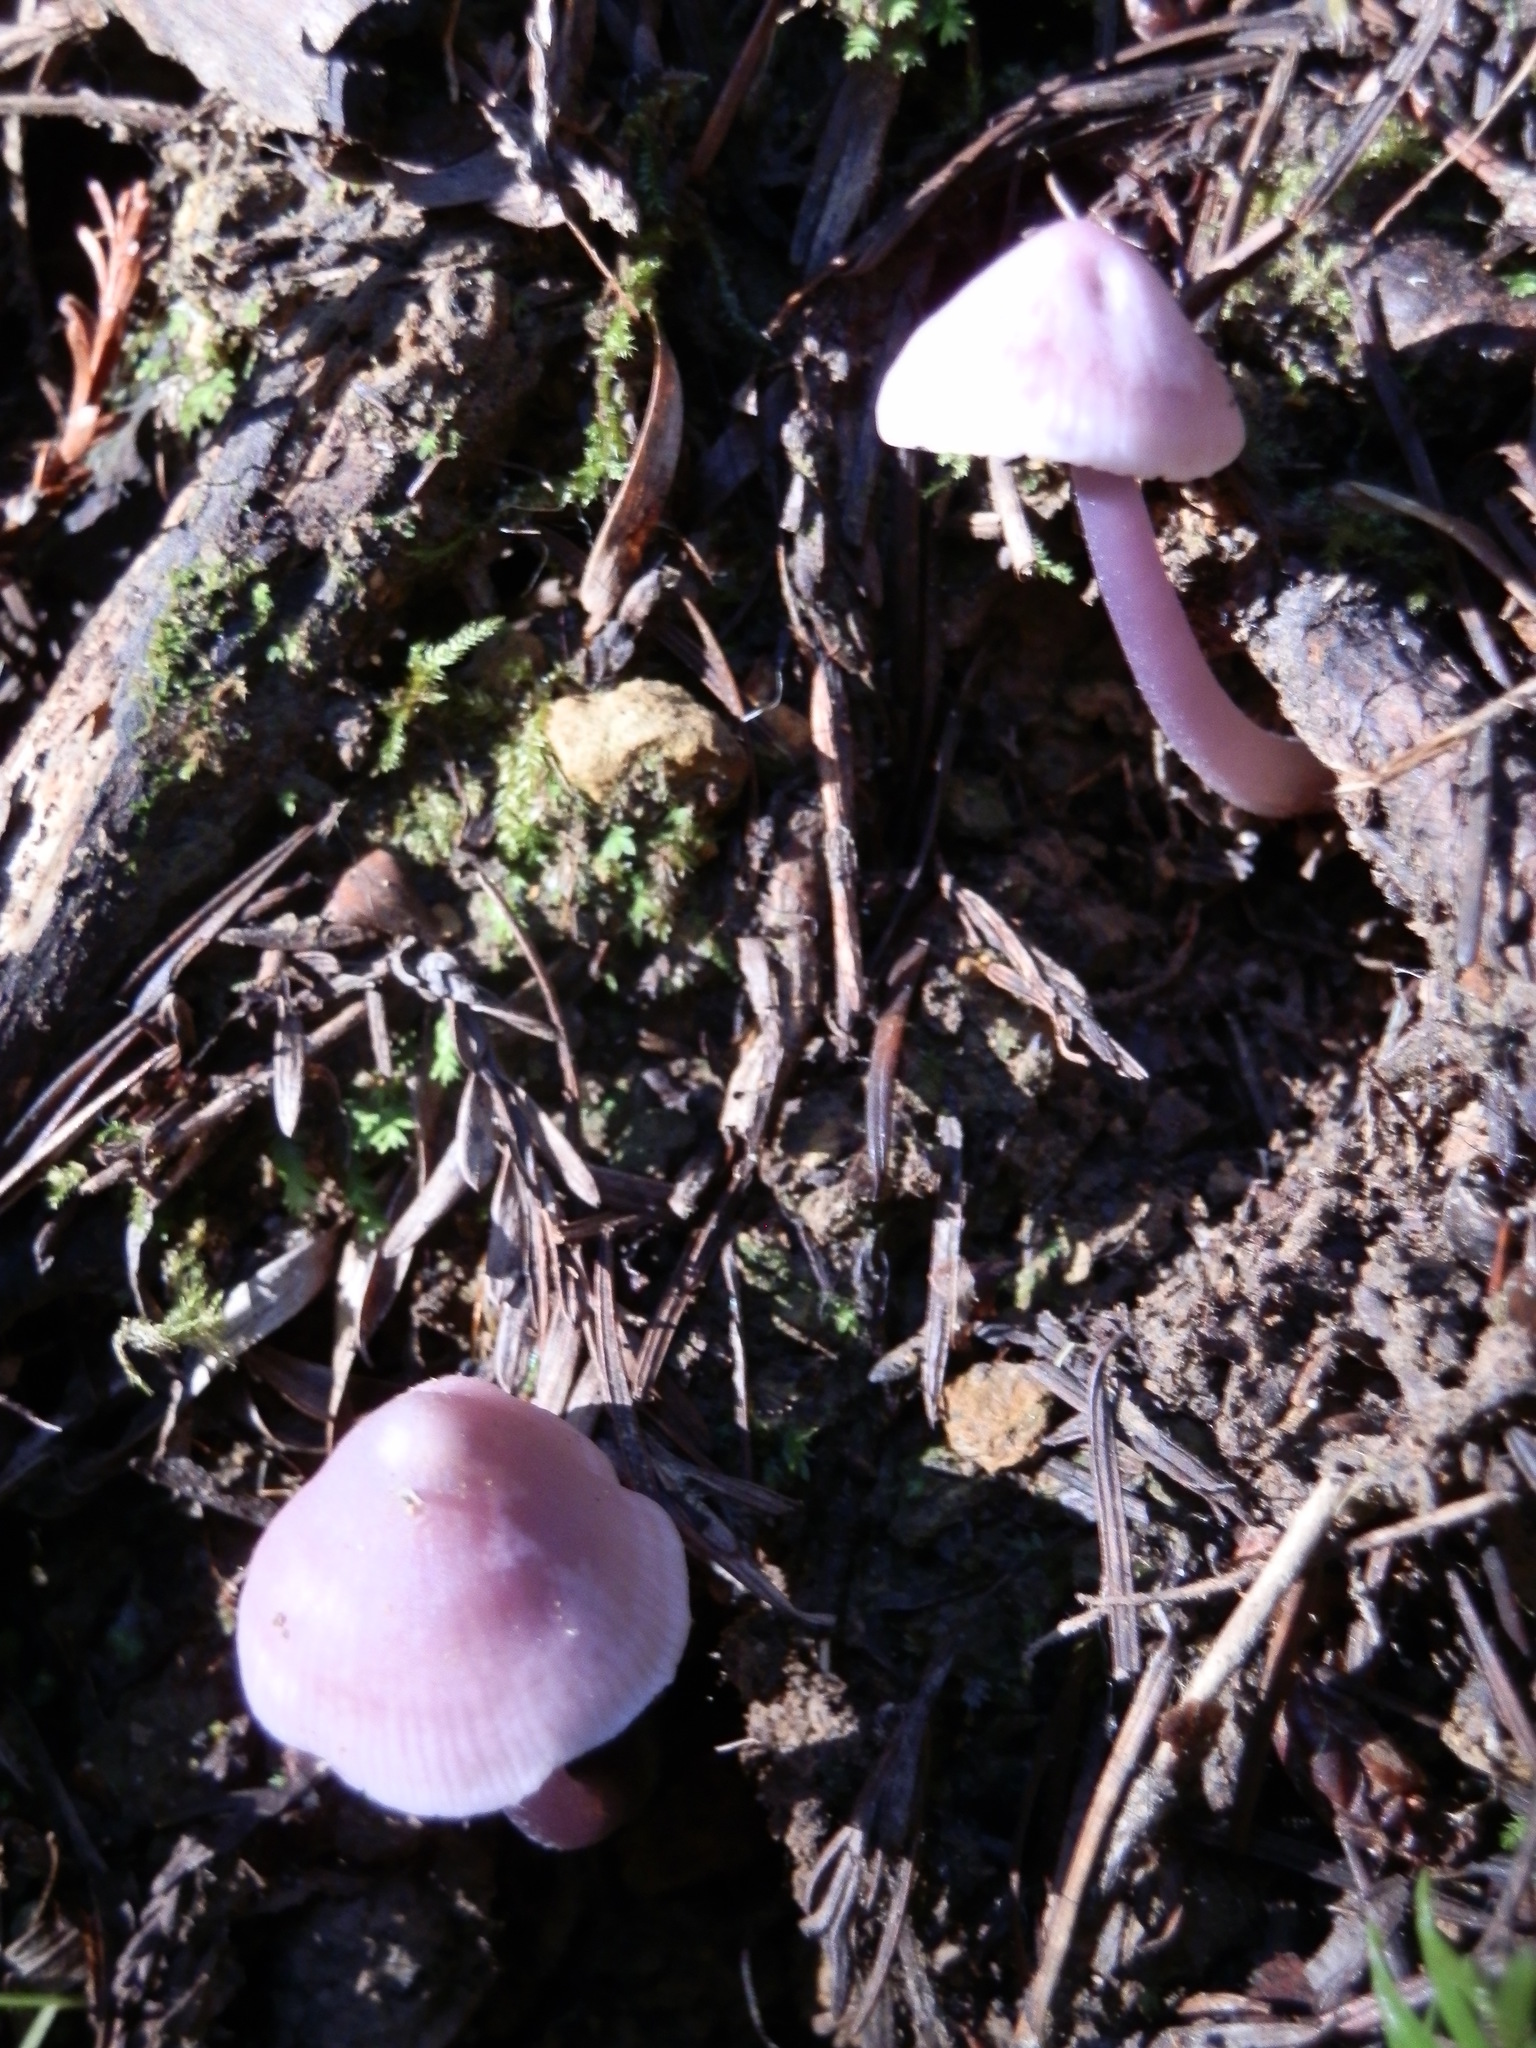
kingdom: Fungi
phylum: Basidiomycota
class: Agaricomycetes
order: Agaricales
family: Mycenaceae
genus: Mycena
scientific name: Mycena pura
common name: Lilac bonnet
